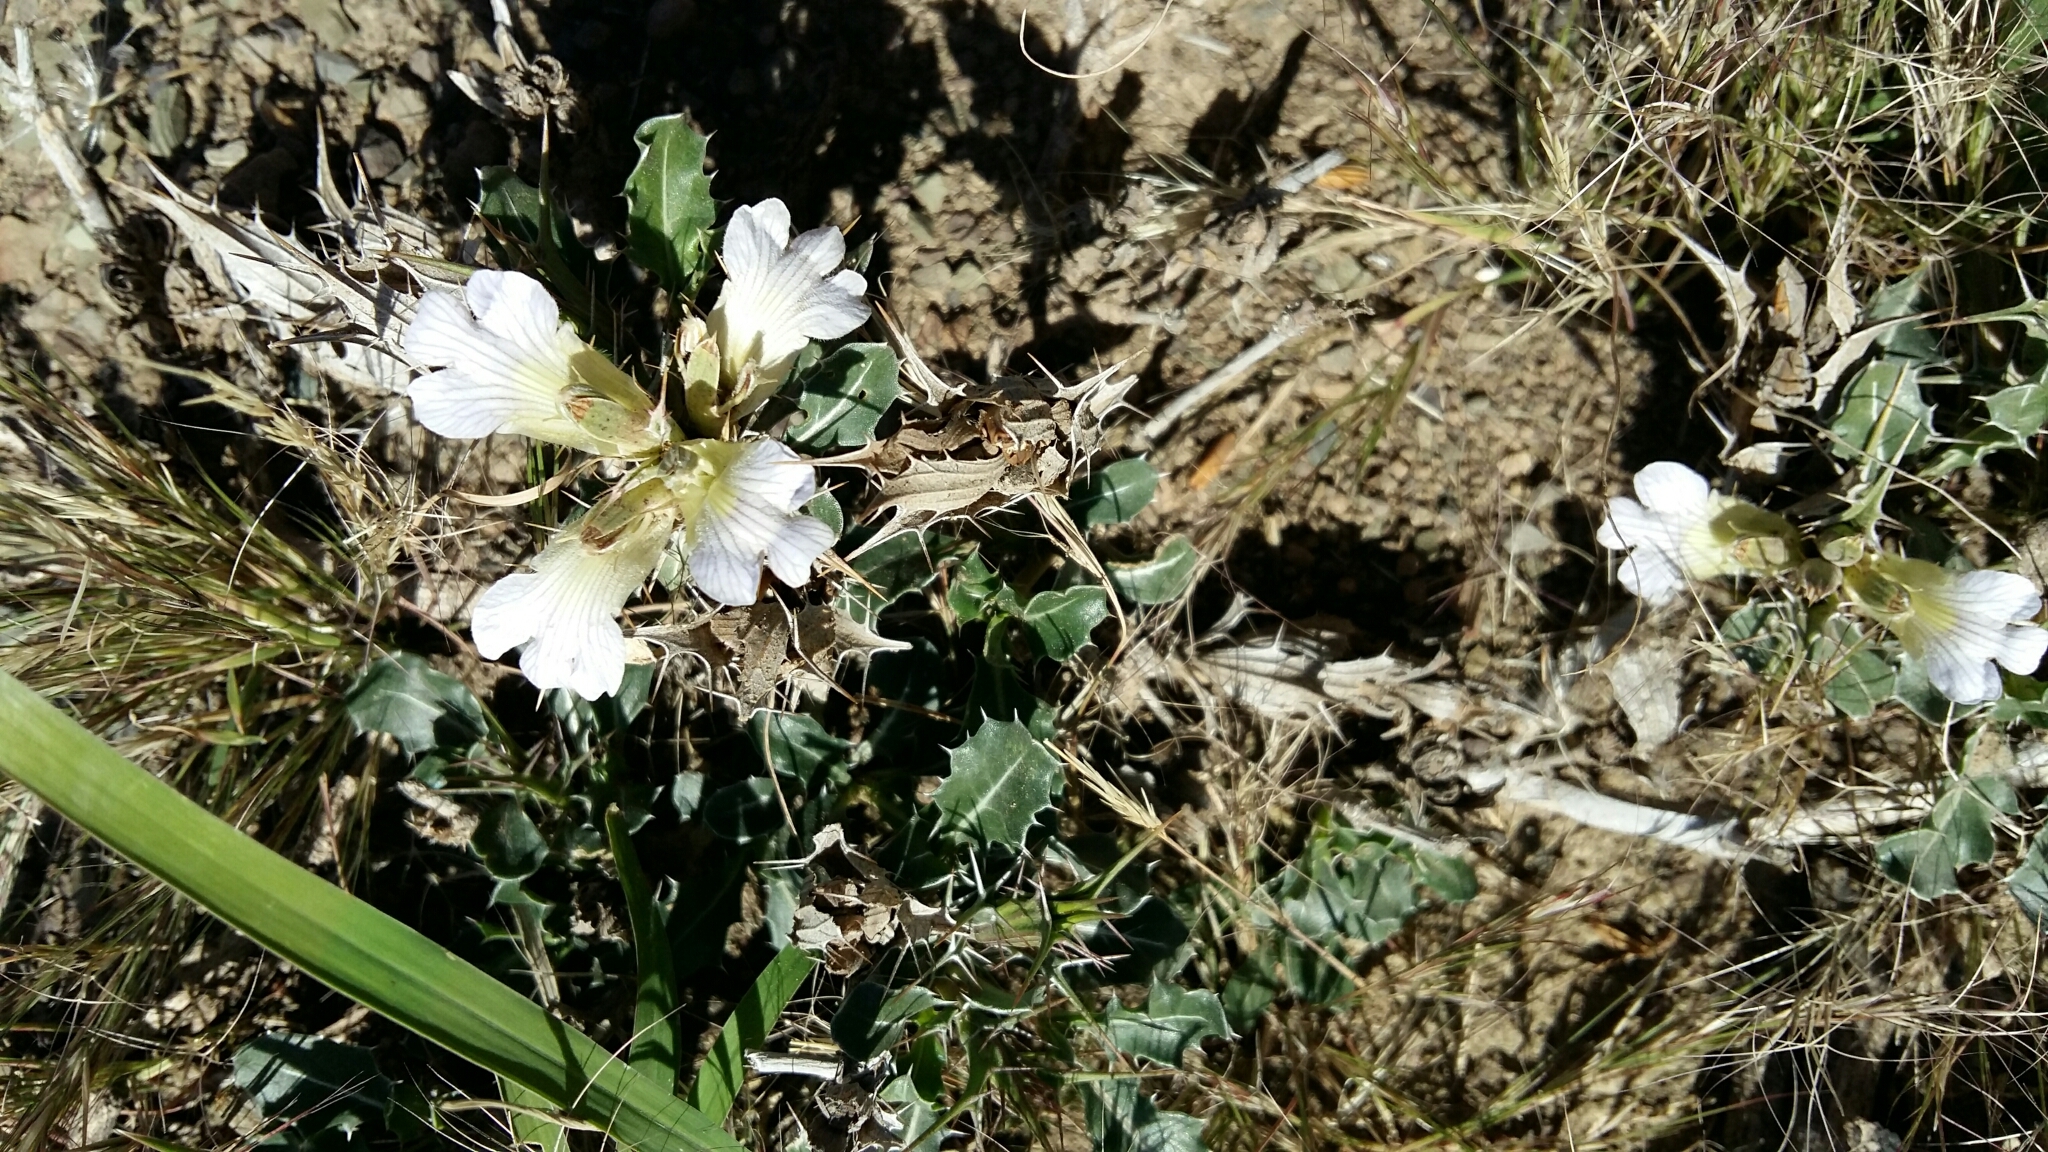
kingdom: Plantae
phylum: Tracheophyta
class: Magnoliopsida
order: Lamiales
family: Acanthaceae
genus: Blepharis
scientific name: Blepharis capensis
